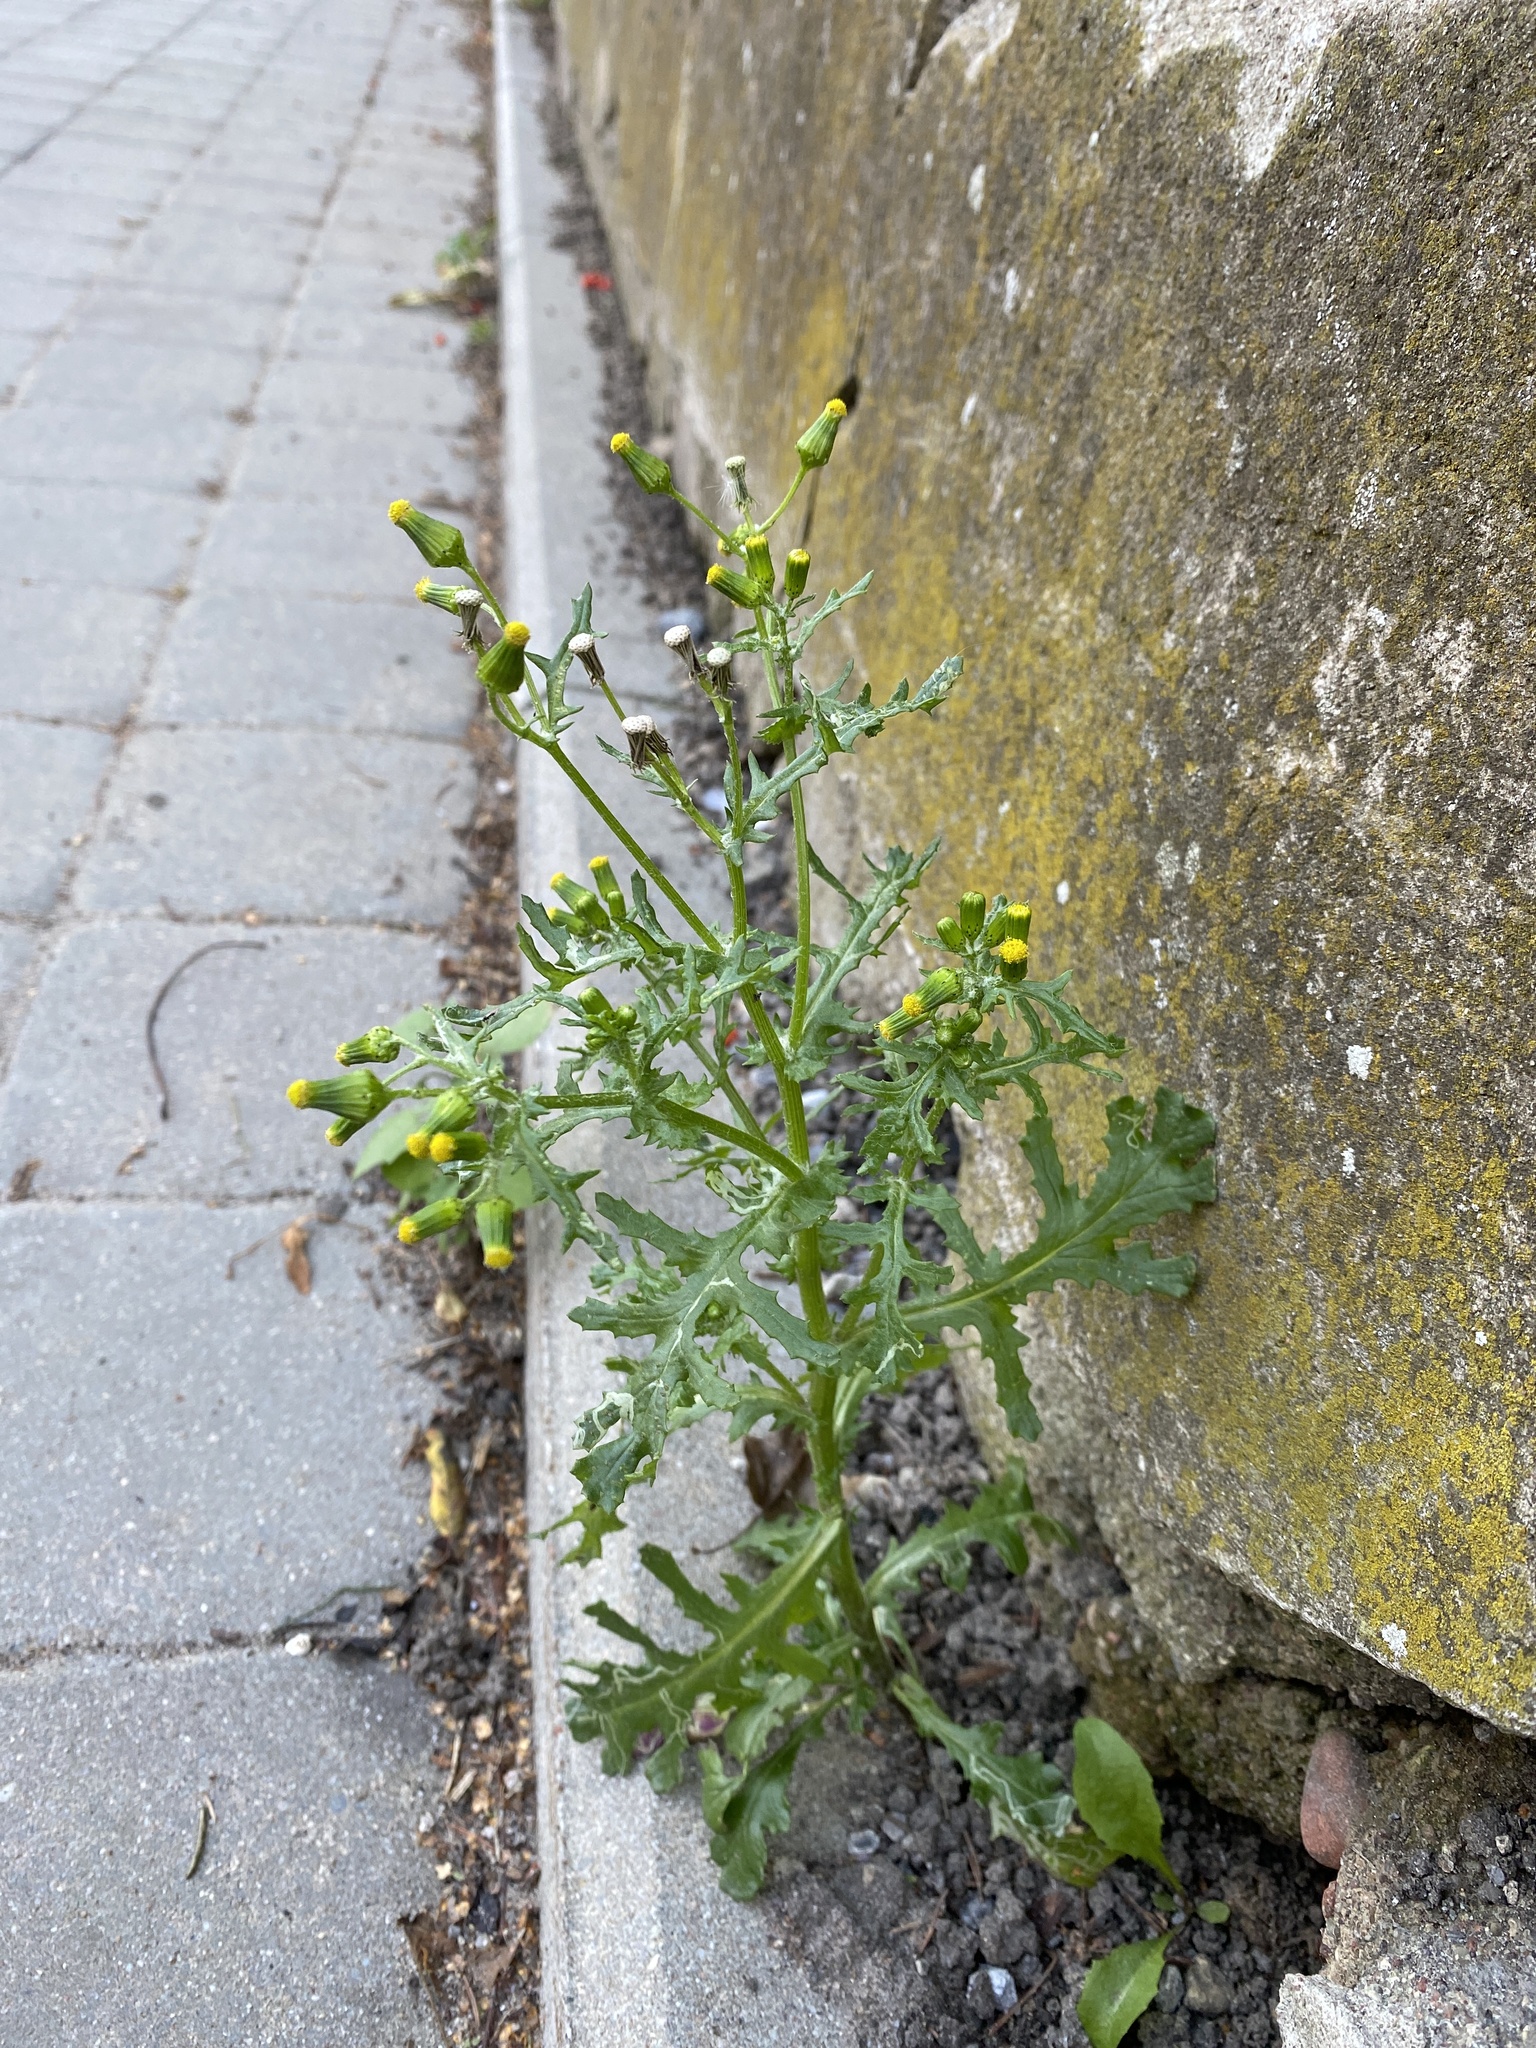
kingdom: Plantae
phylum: Tracheophyta
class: Magnoliopsida
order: Asterales
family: Asteraceae
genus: Senecio
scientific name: Senecio vulgaris
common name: Old-man-in-the-spring
